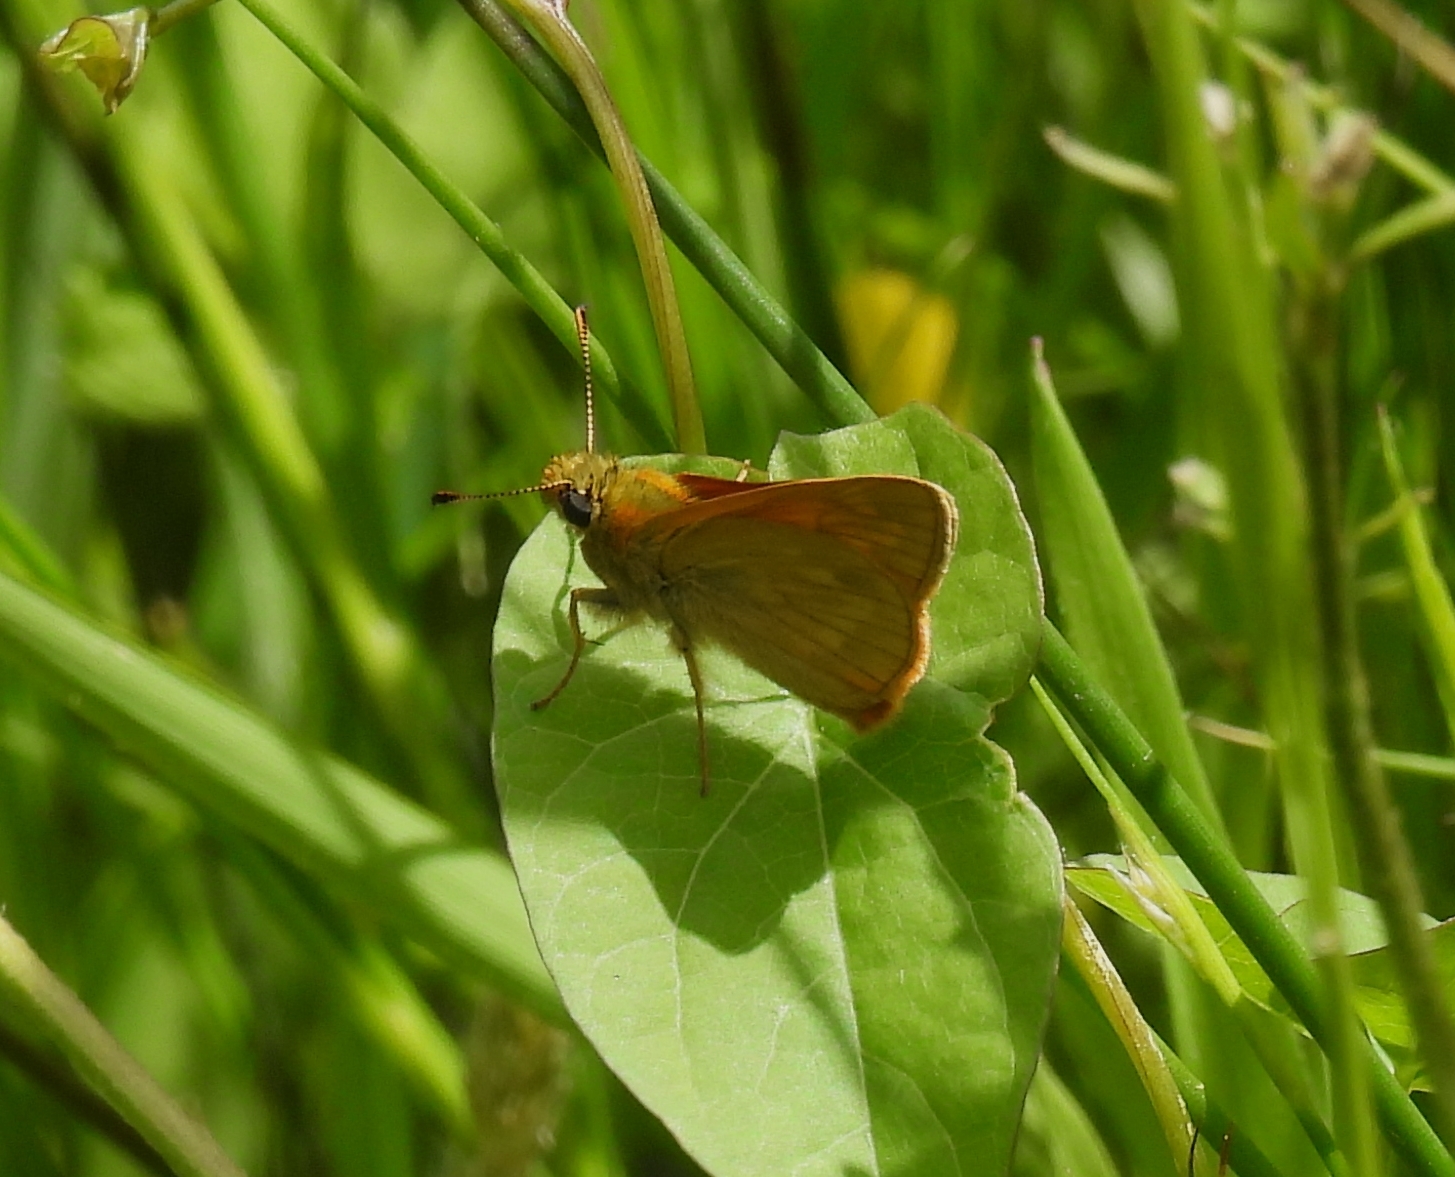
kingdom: Animalia
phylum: Arthropoda
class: Insecta
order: Lepidoptera
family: Hesperiidae
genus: Ochlodes
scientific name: Ochlodes venata
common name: Large skipper
